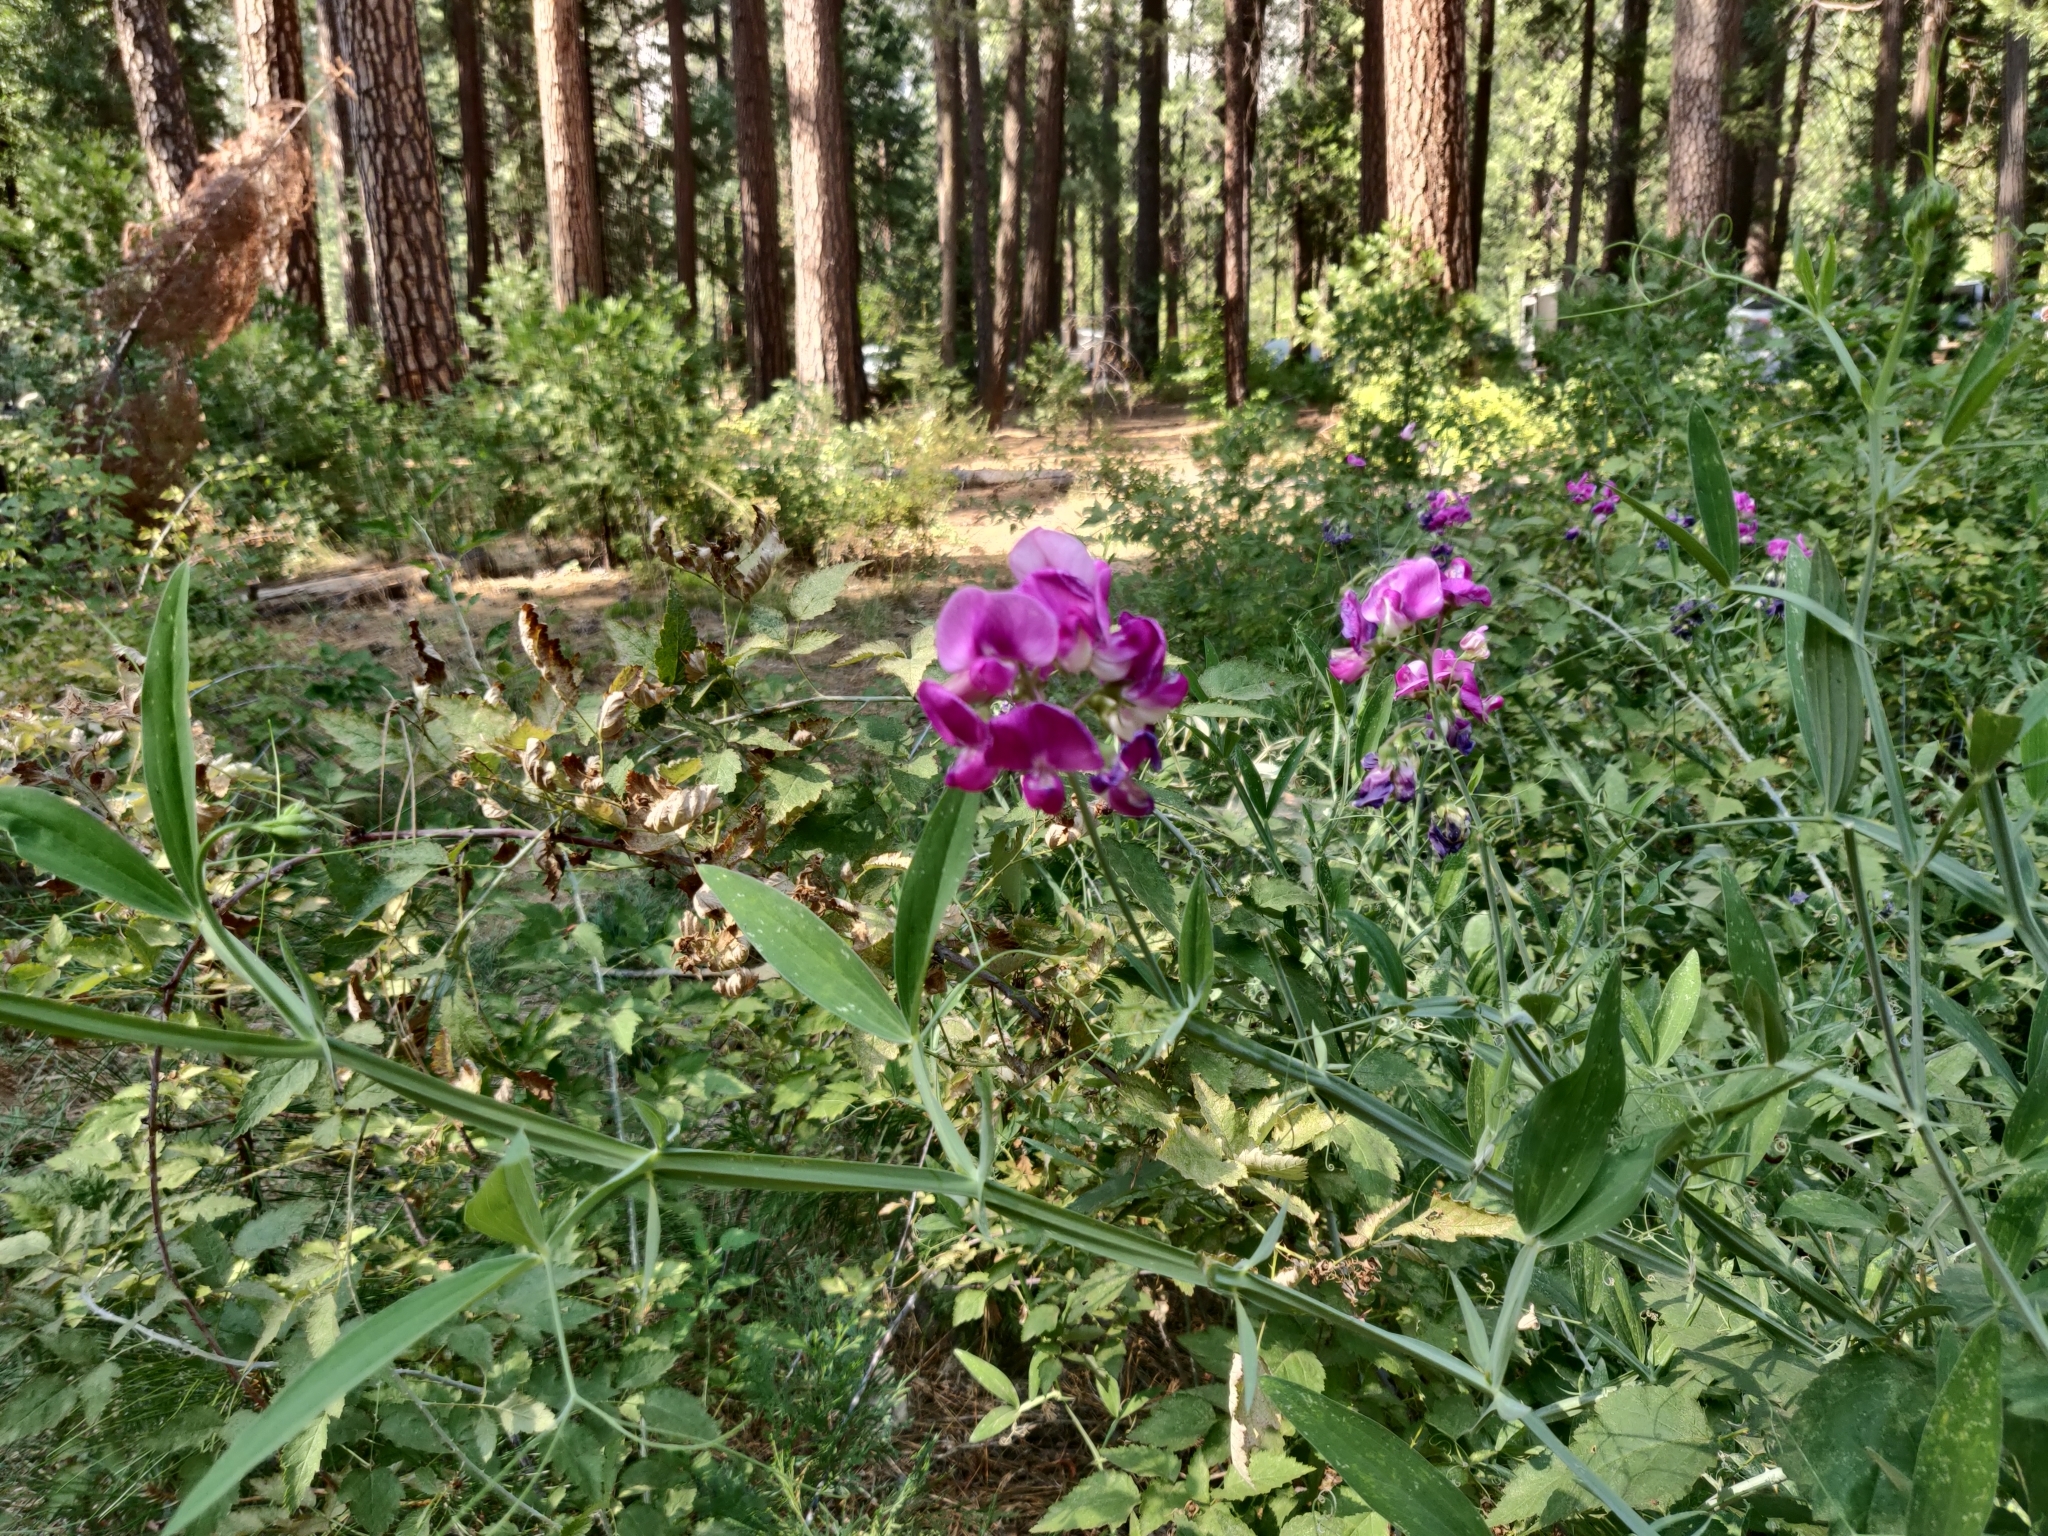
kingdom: Plantae
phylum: Tracheophyta
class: Magnoliopsida
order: Fabales
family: Fabaceae
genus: Lathyrus
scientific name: Lathyrus latifolius
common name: Perennial pea
